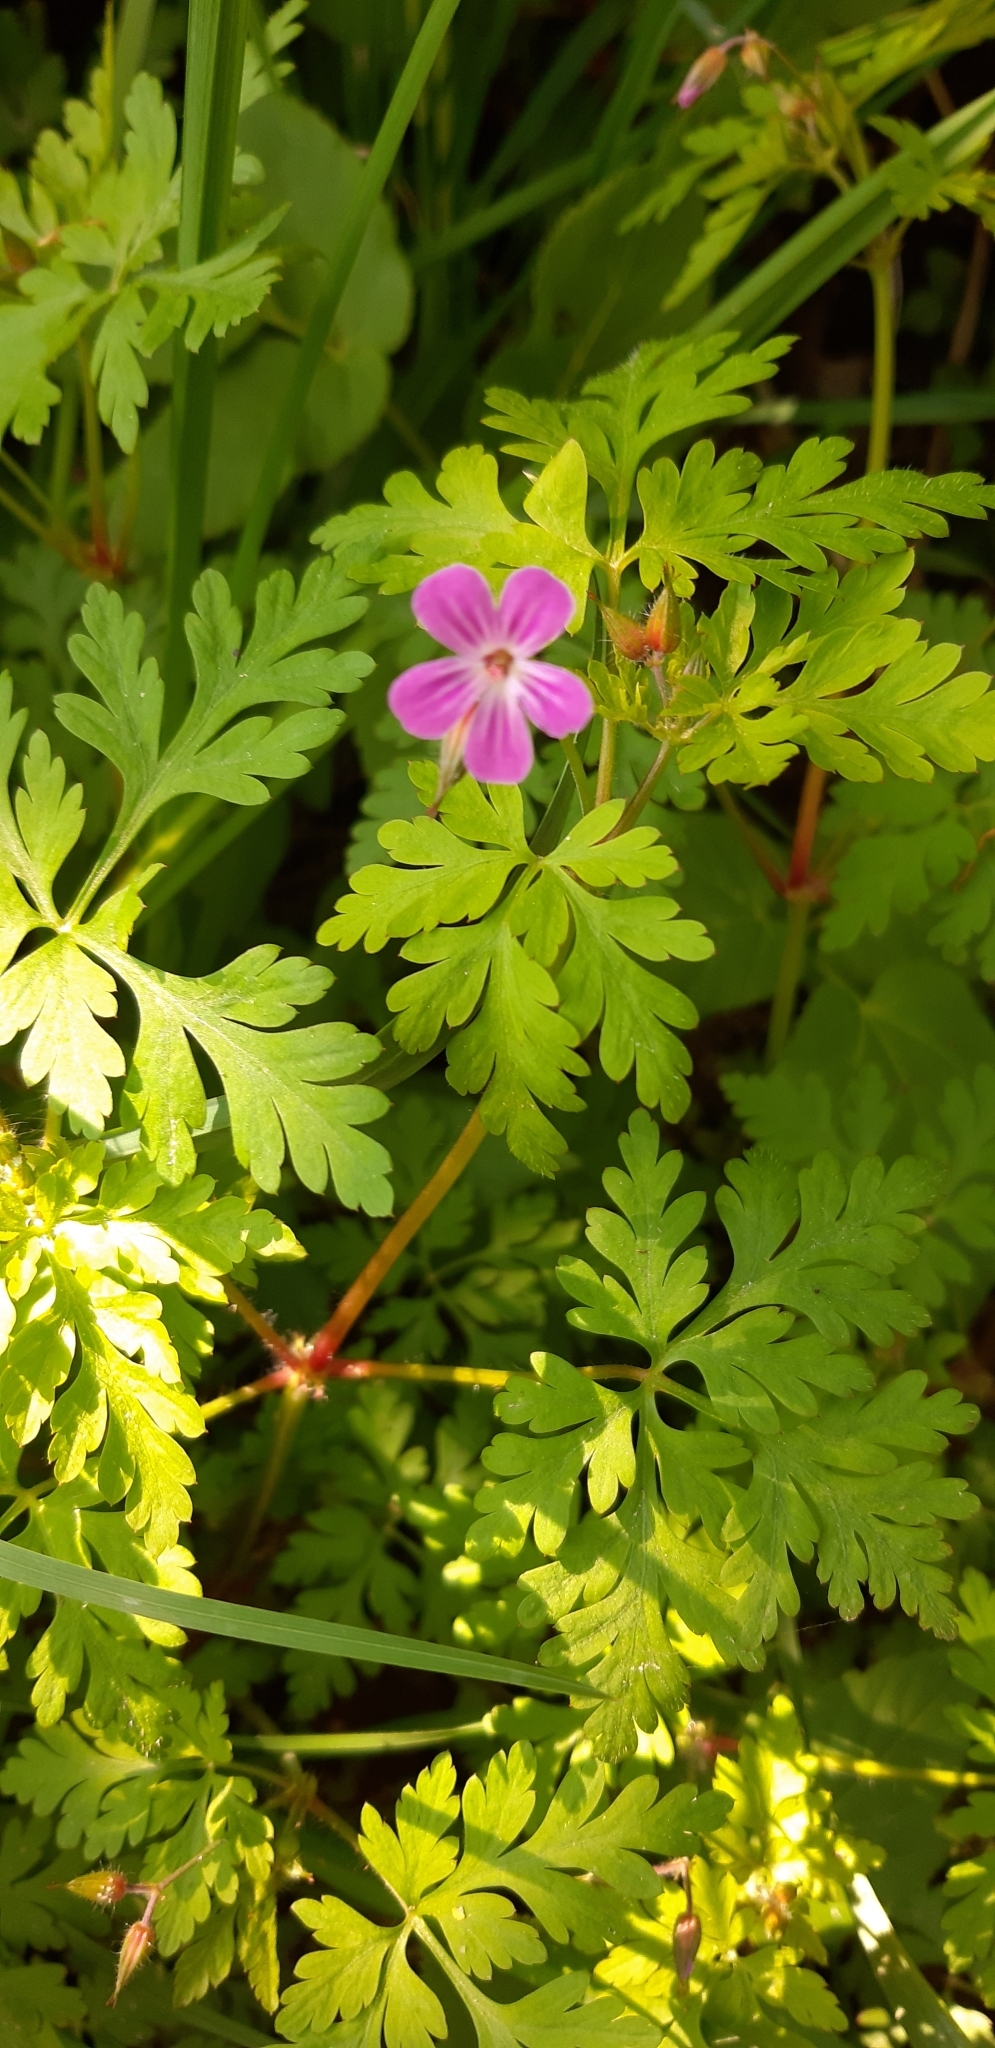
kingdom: Plantae
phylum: Tracheophyta
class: Magnoliopsida
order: Geraniales
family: Geraniaceae
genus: Geranium
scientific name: Geranium robertianum
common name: Herb-robert
